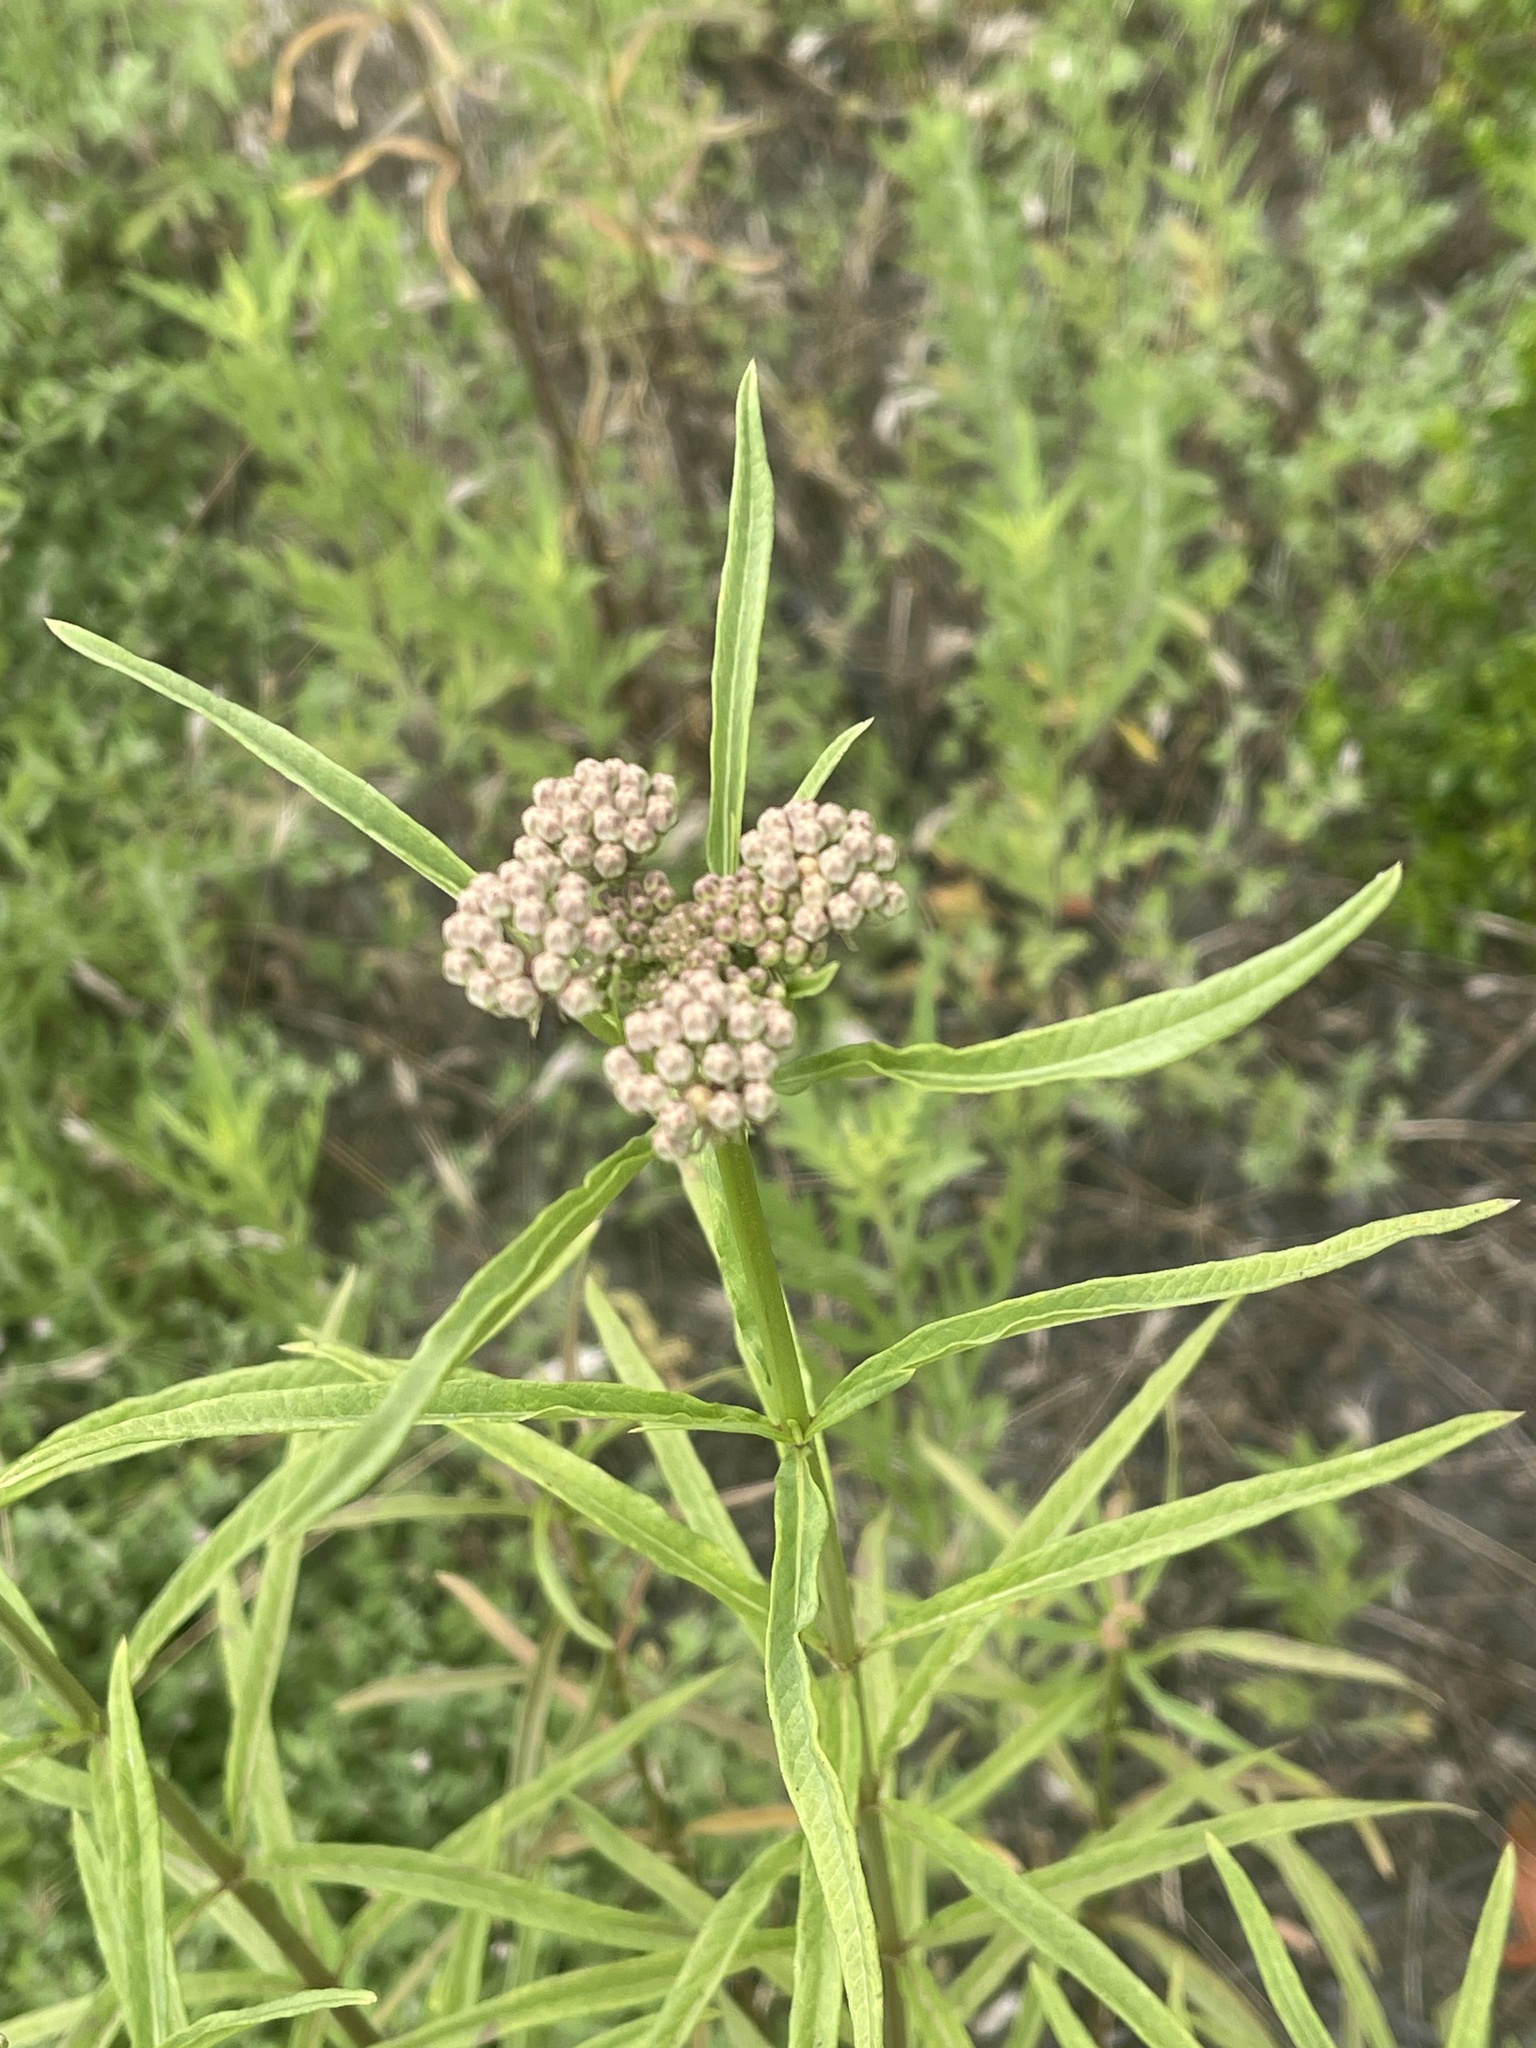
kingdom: Plantae
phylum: Tracheophyta
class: Magnoliopsida
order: Gentianales
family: Apocynaceae
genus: Asclepias
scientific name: Asclepias fascicularis
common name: Mexican milkweed
